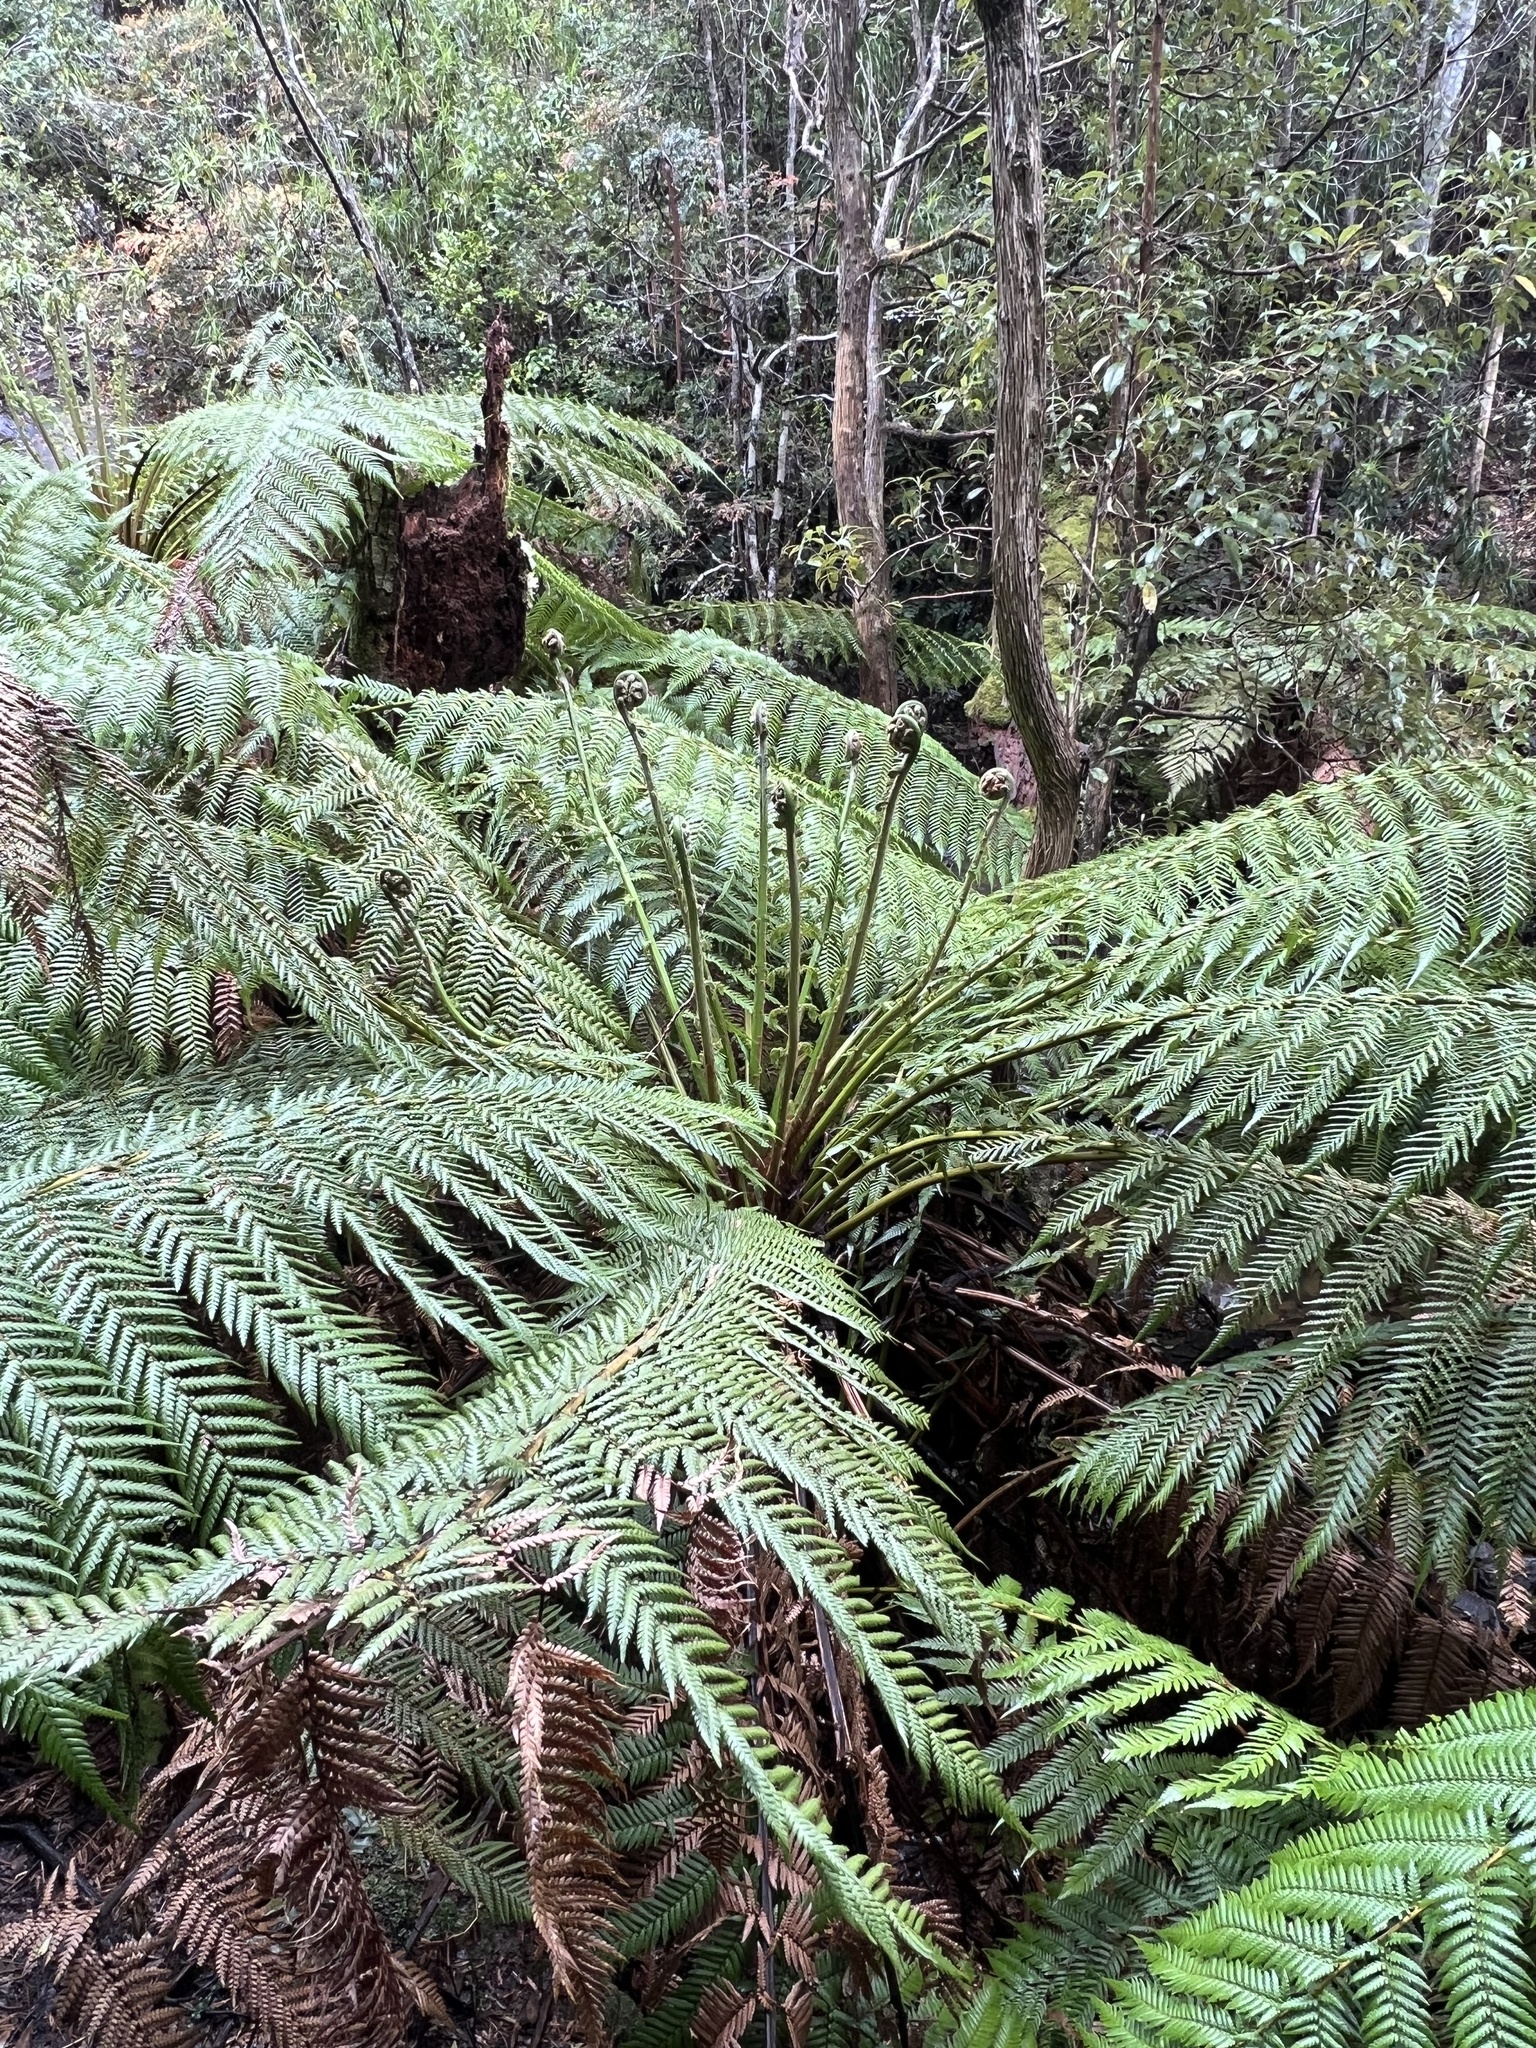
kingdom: Plantae
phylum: Tracheophyta
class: Polypodiopsida
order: Cyatheales
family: Dicksoniaceae
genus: Dicksonia
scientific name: Dicksonia antarctica
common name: Australian treefern
